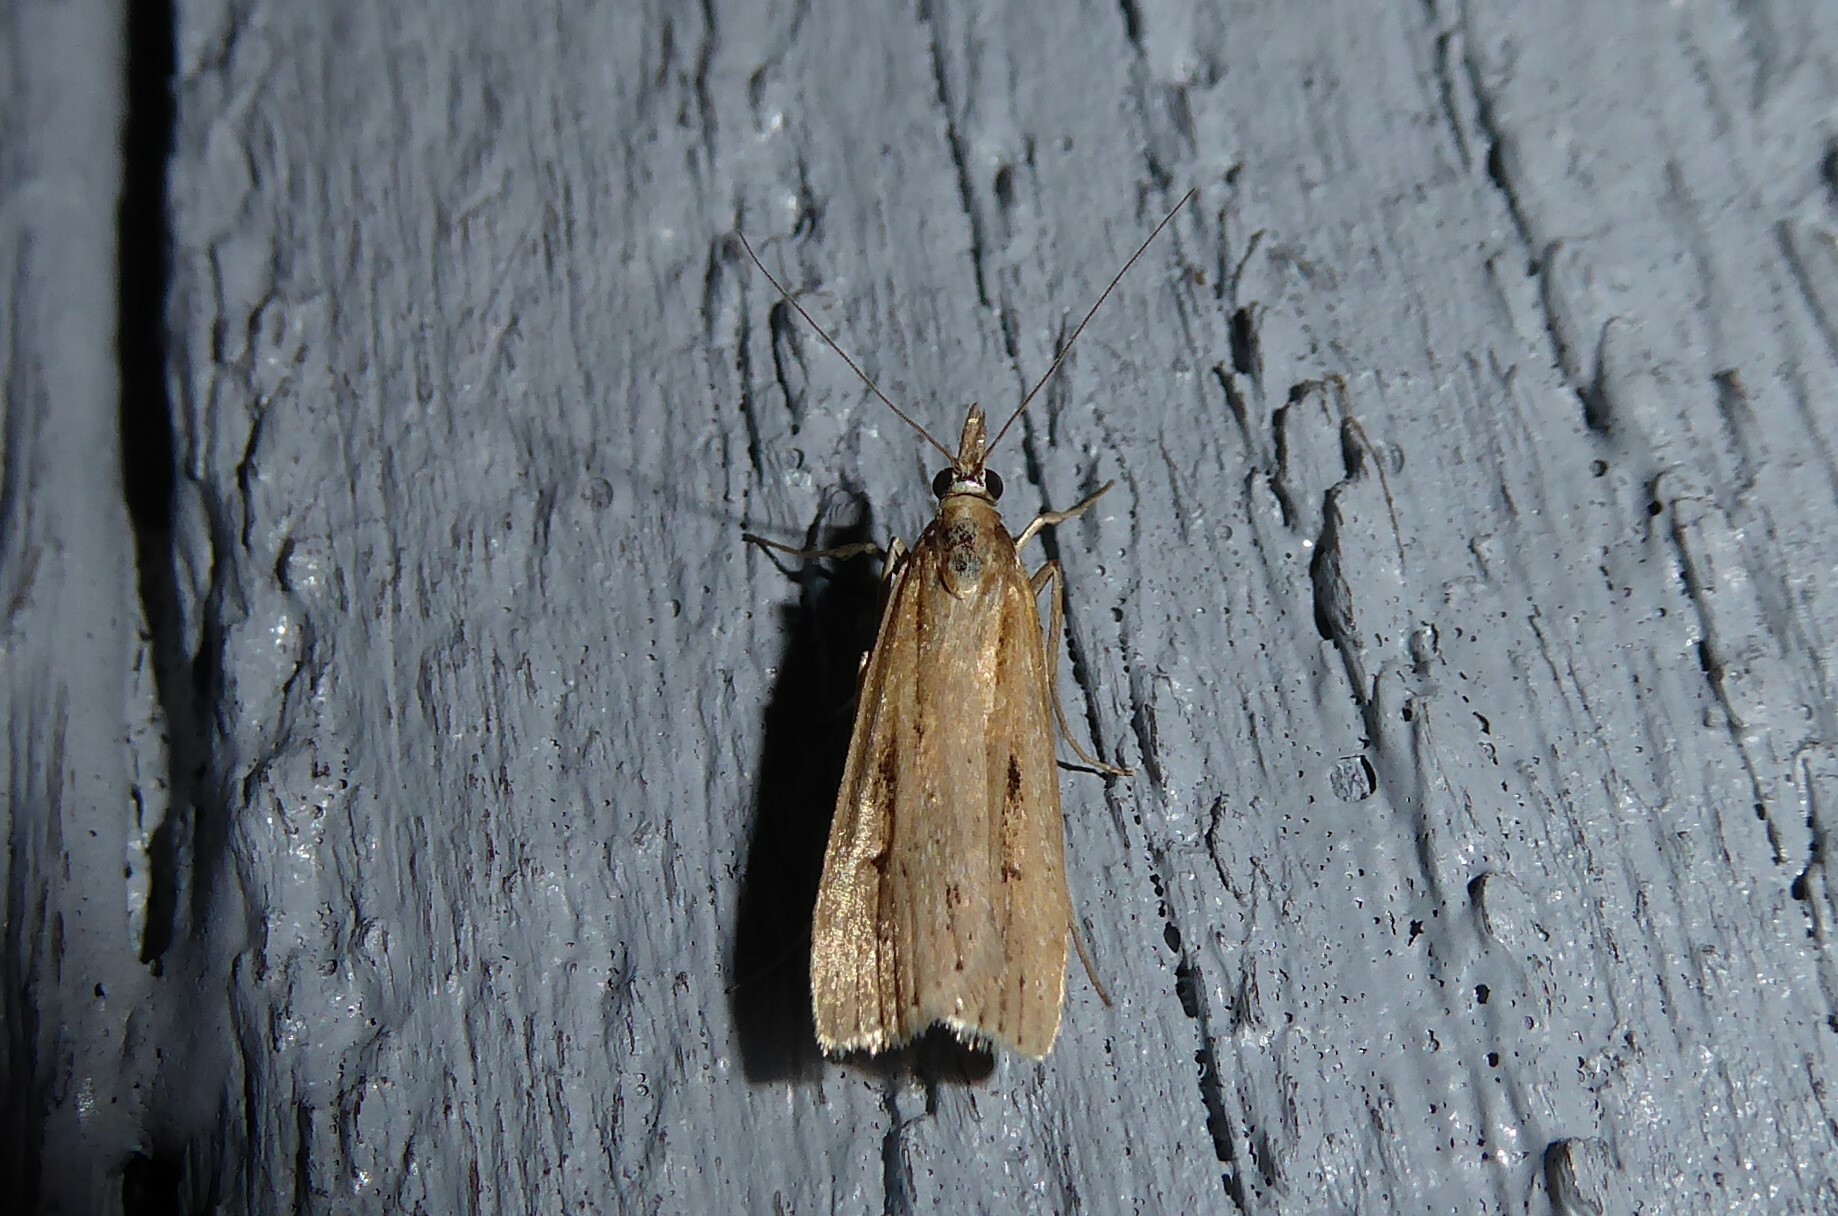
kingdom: Animalia
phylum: Arthropoda
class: Insecta
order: Lepidoptera
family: Crambidae
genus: Eudonia
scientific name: Eudonia sabulosella
